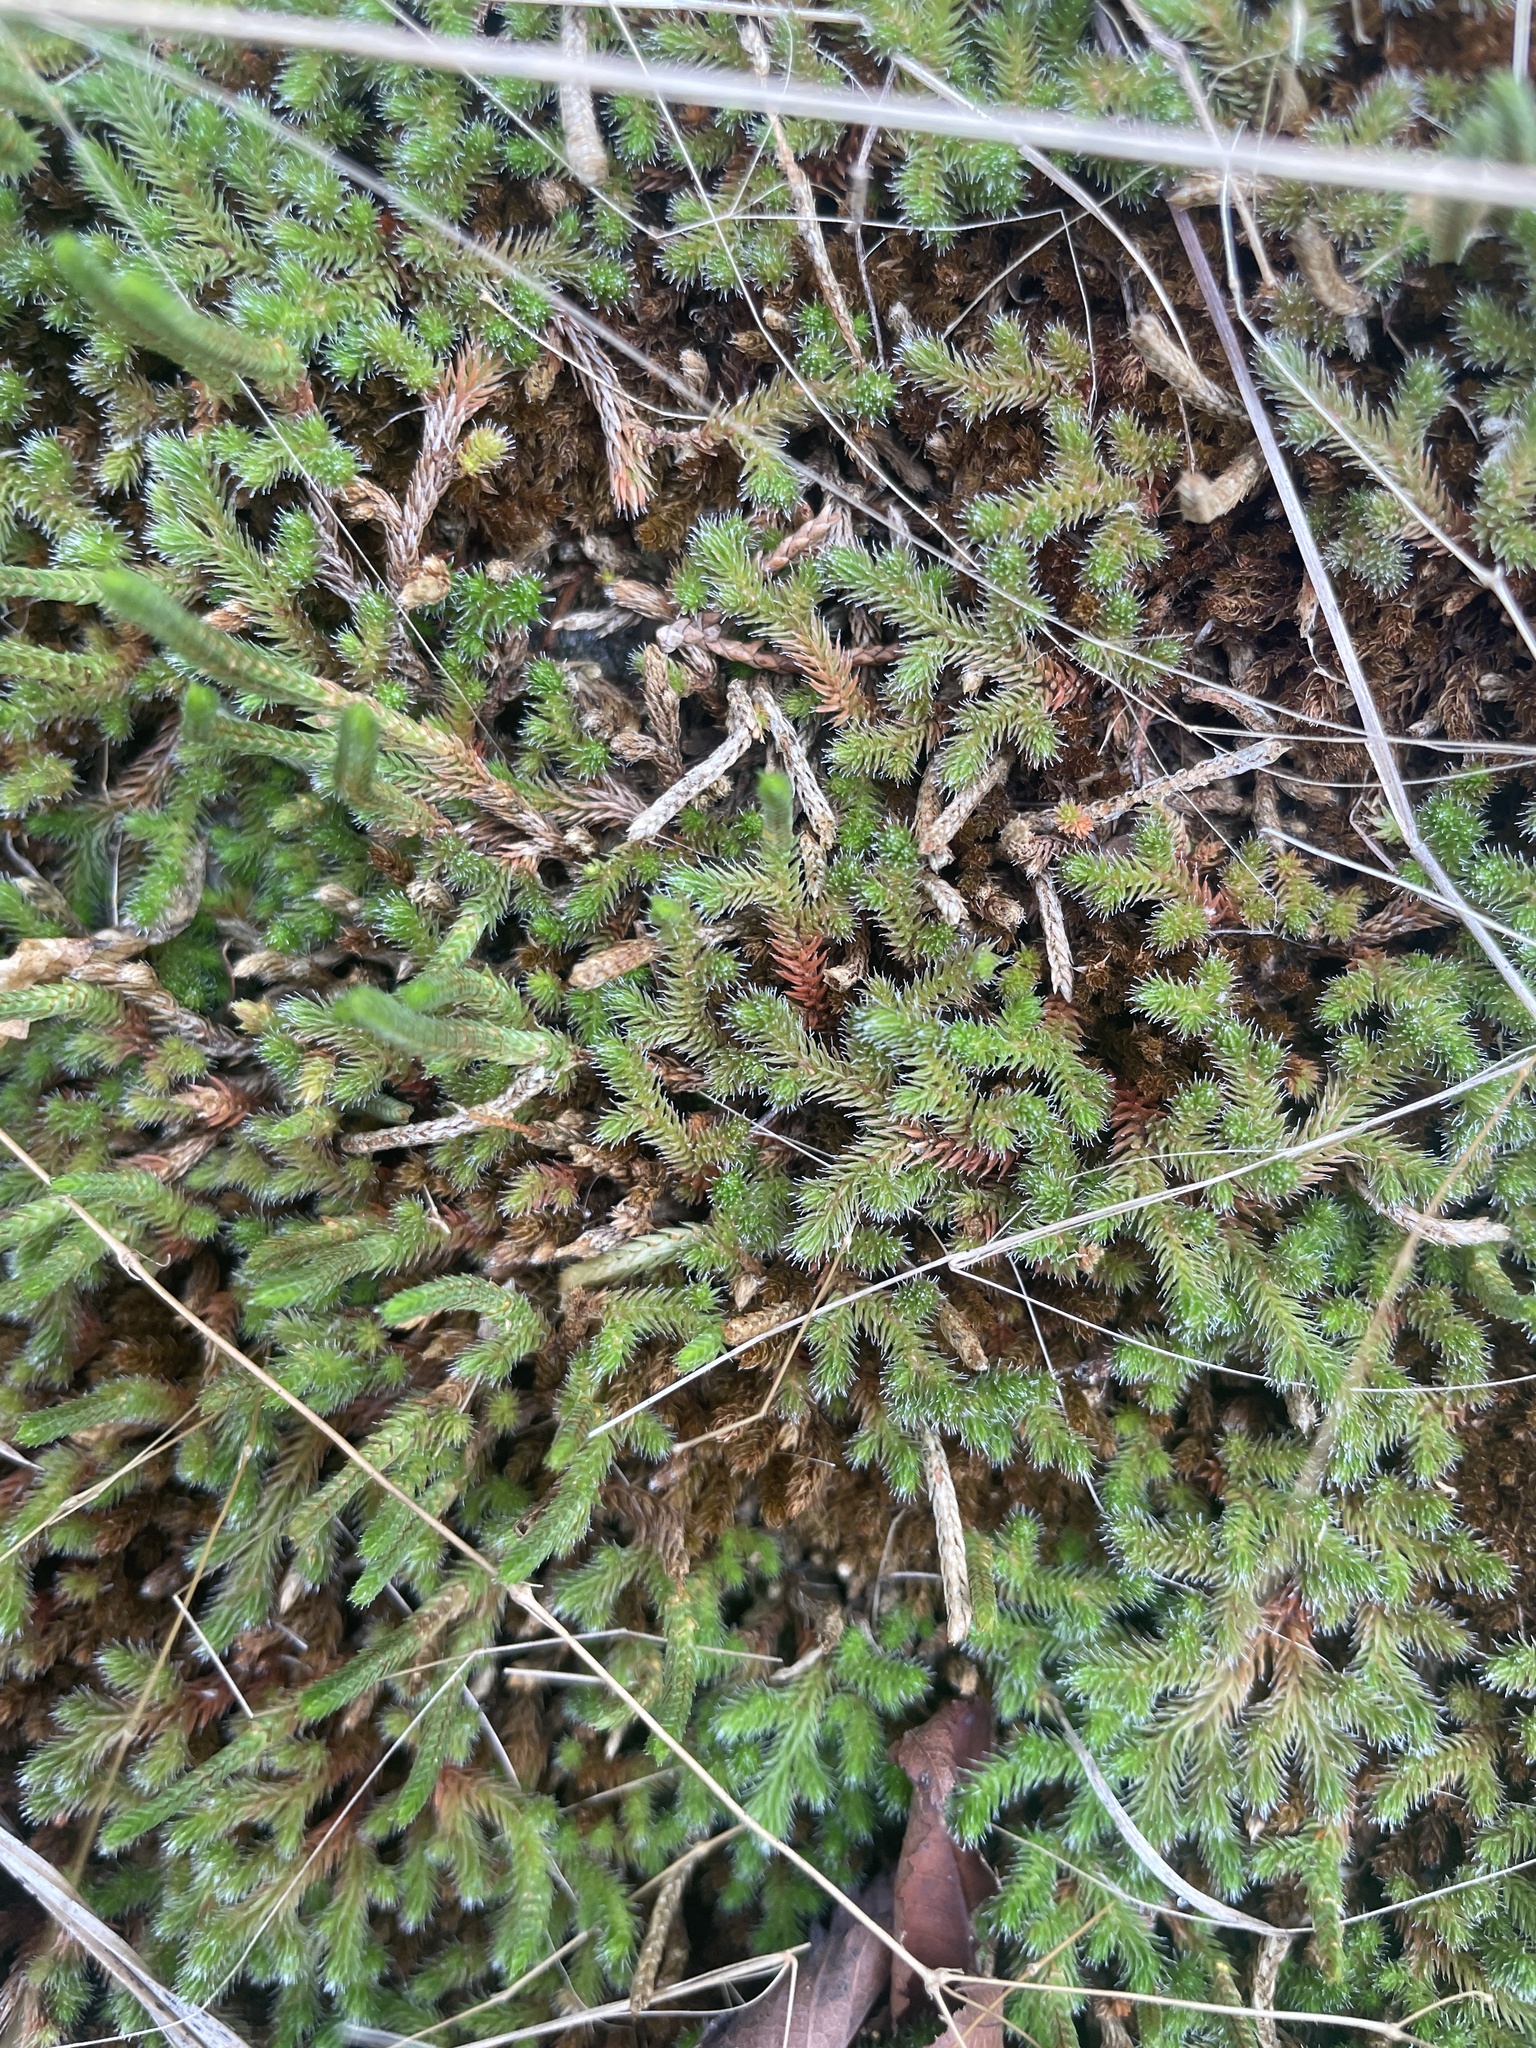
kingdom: Plantae
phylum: Tracheophyta
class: Lycopodiopsida
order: Selaginellales
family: Selaginellaceae
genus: Selaginella
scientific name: Selaginella rupestris
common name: Dwarf spikemoss
